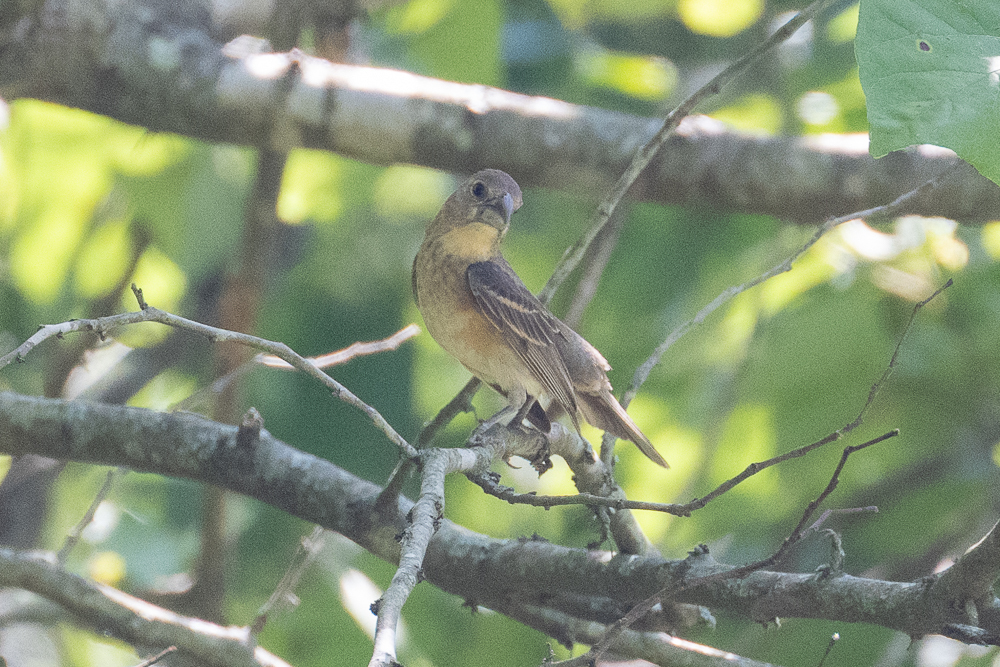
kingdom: Animalia
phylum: Chordata
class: Aves
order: Passeriformes
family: Cardinalidae
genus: Passerina
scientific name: Passerina caerulea
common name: Blue grosbeak
